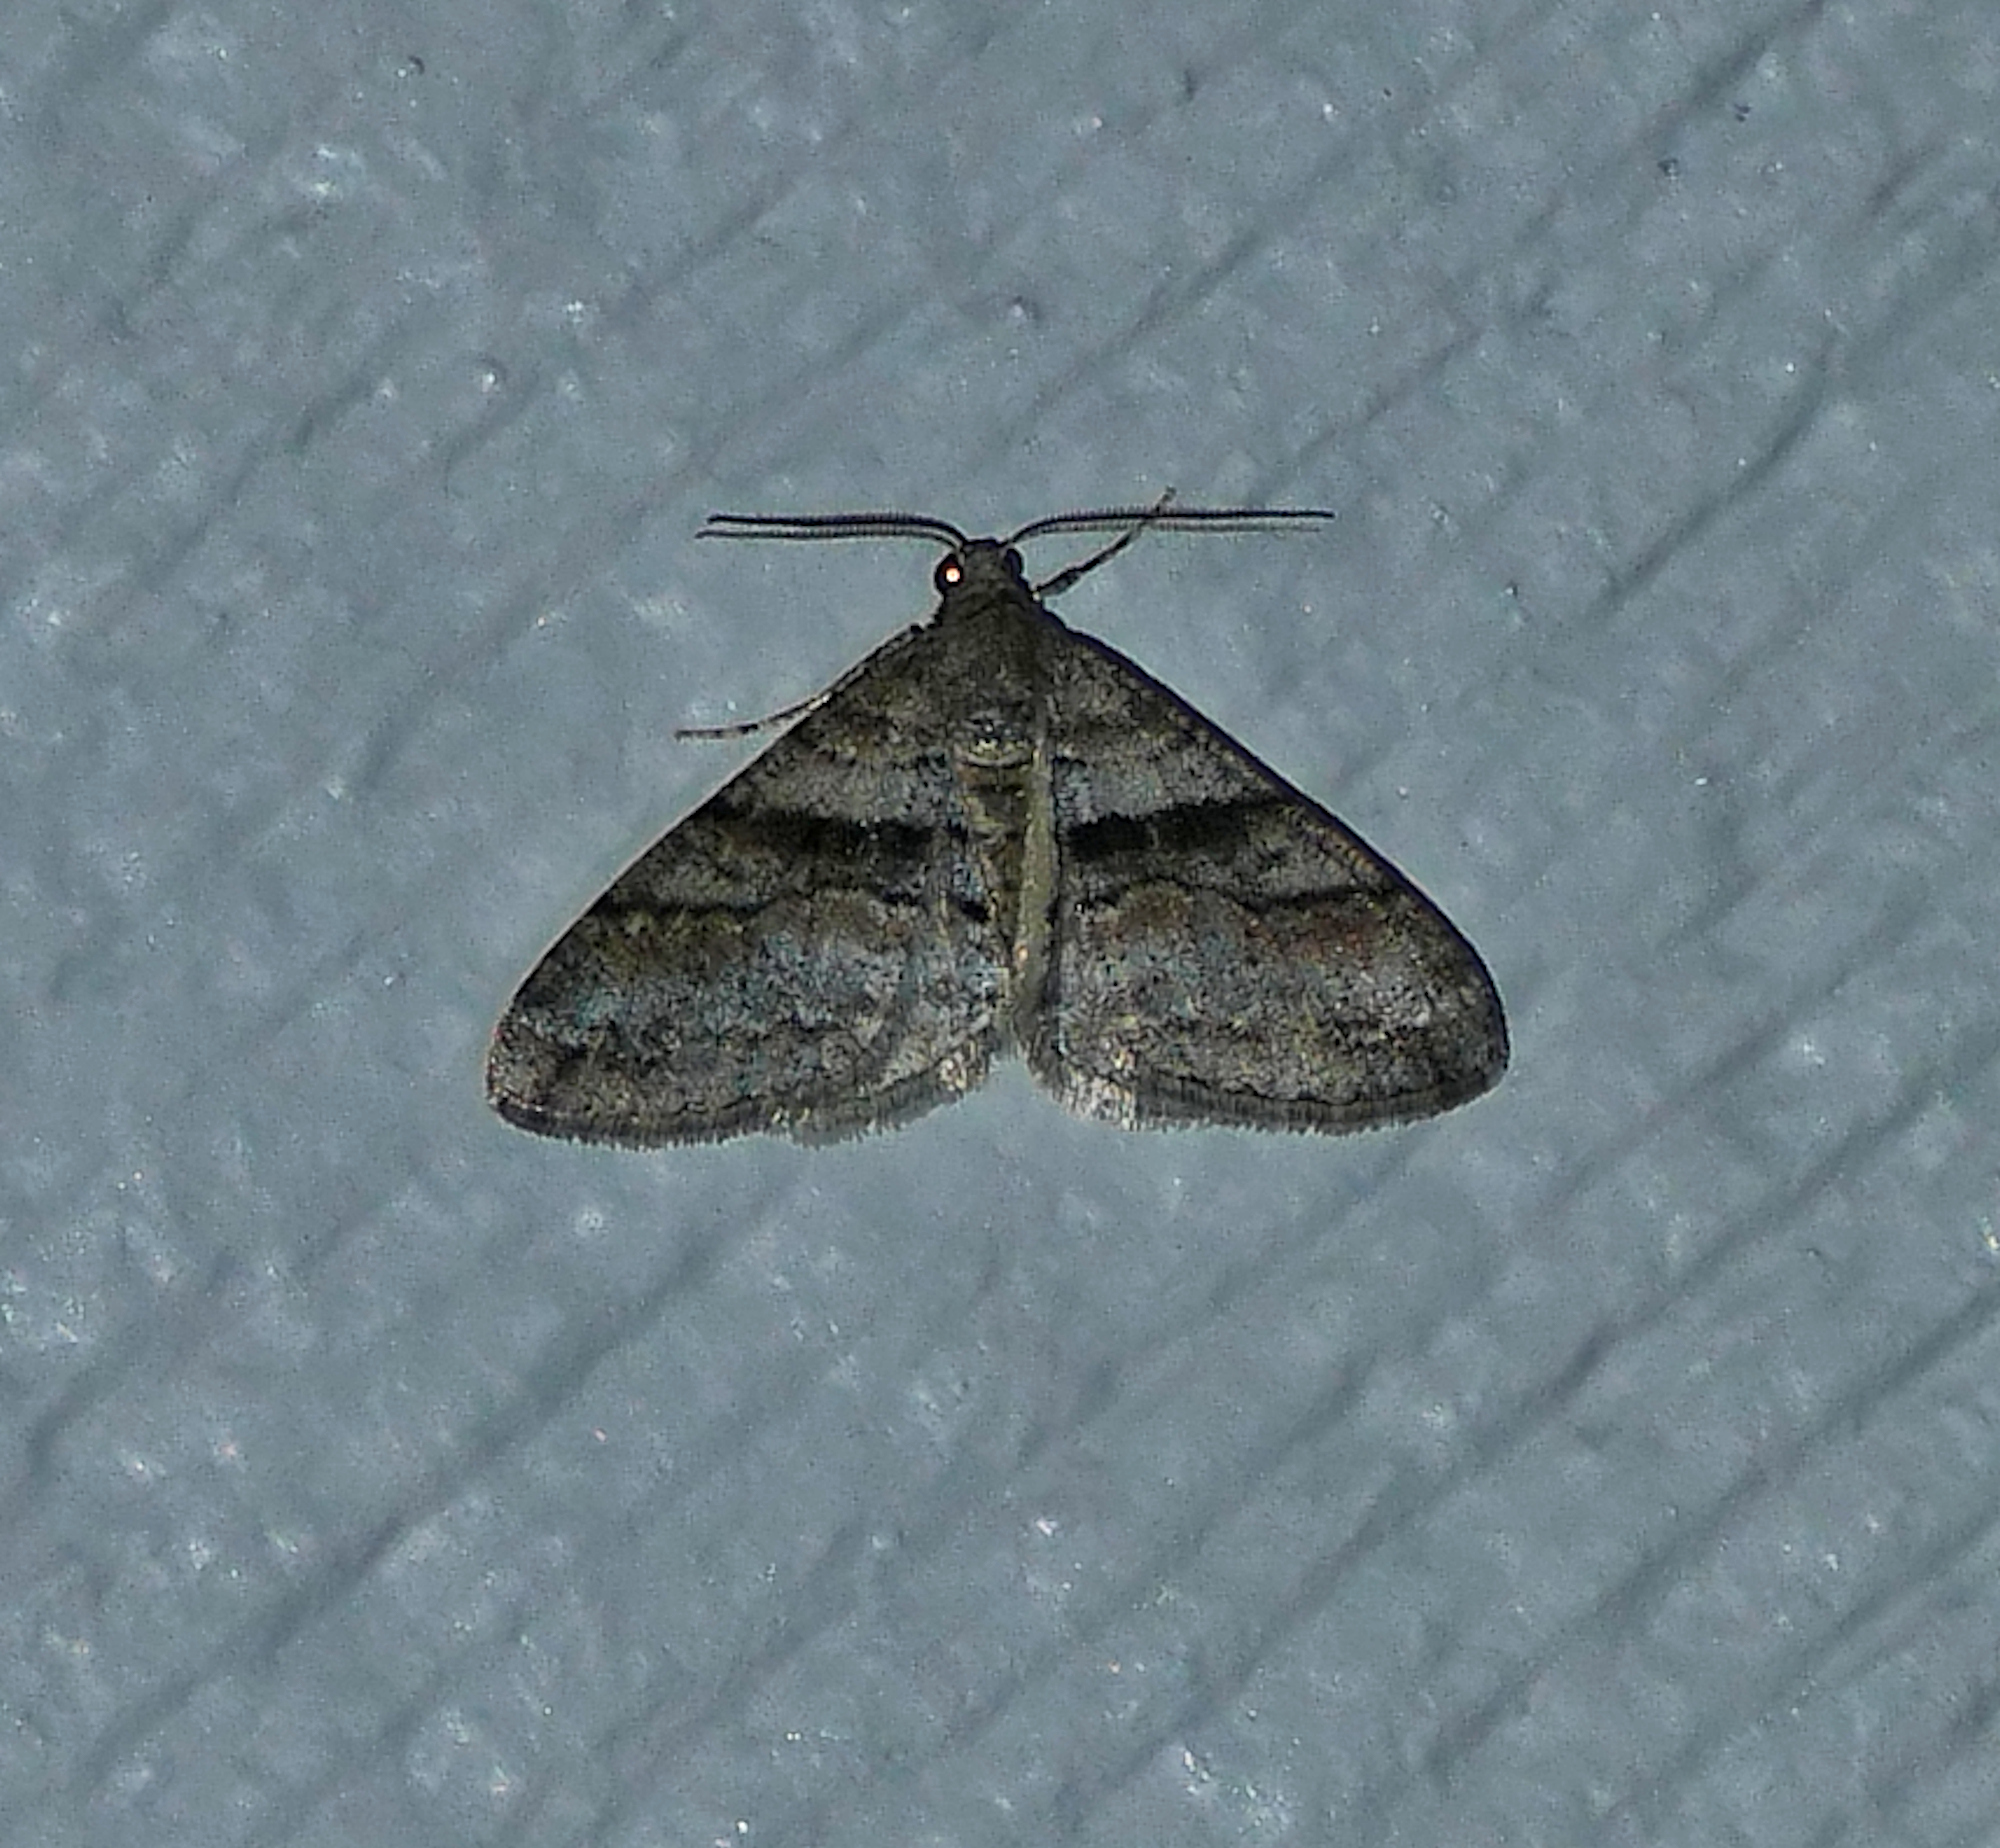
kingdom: Animalia
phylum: Arthropoda
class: Insecta
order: Lepidoptera
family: Geometridae
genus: Prionomelia
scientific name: Prionomelia spododea
